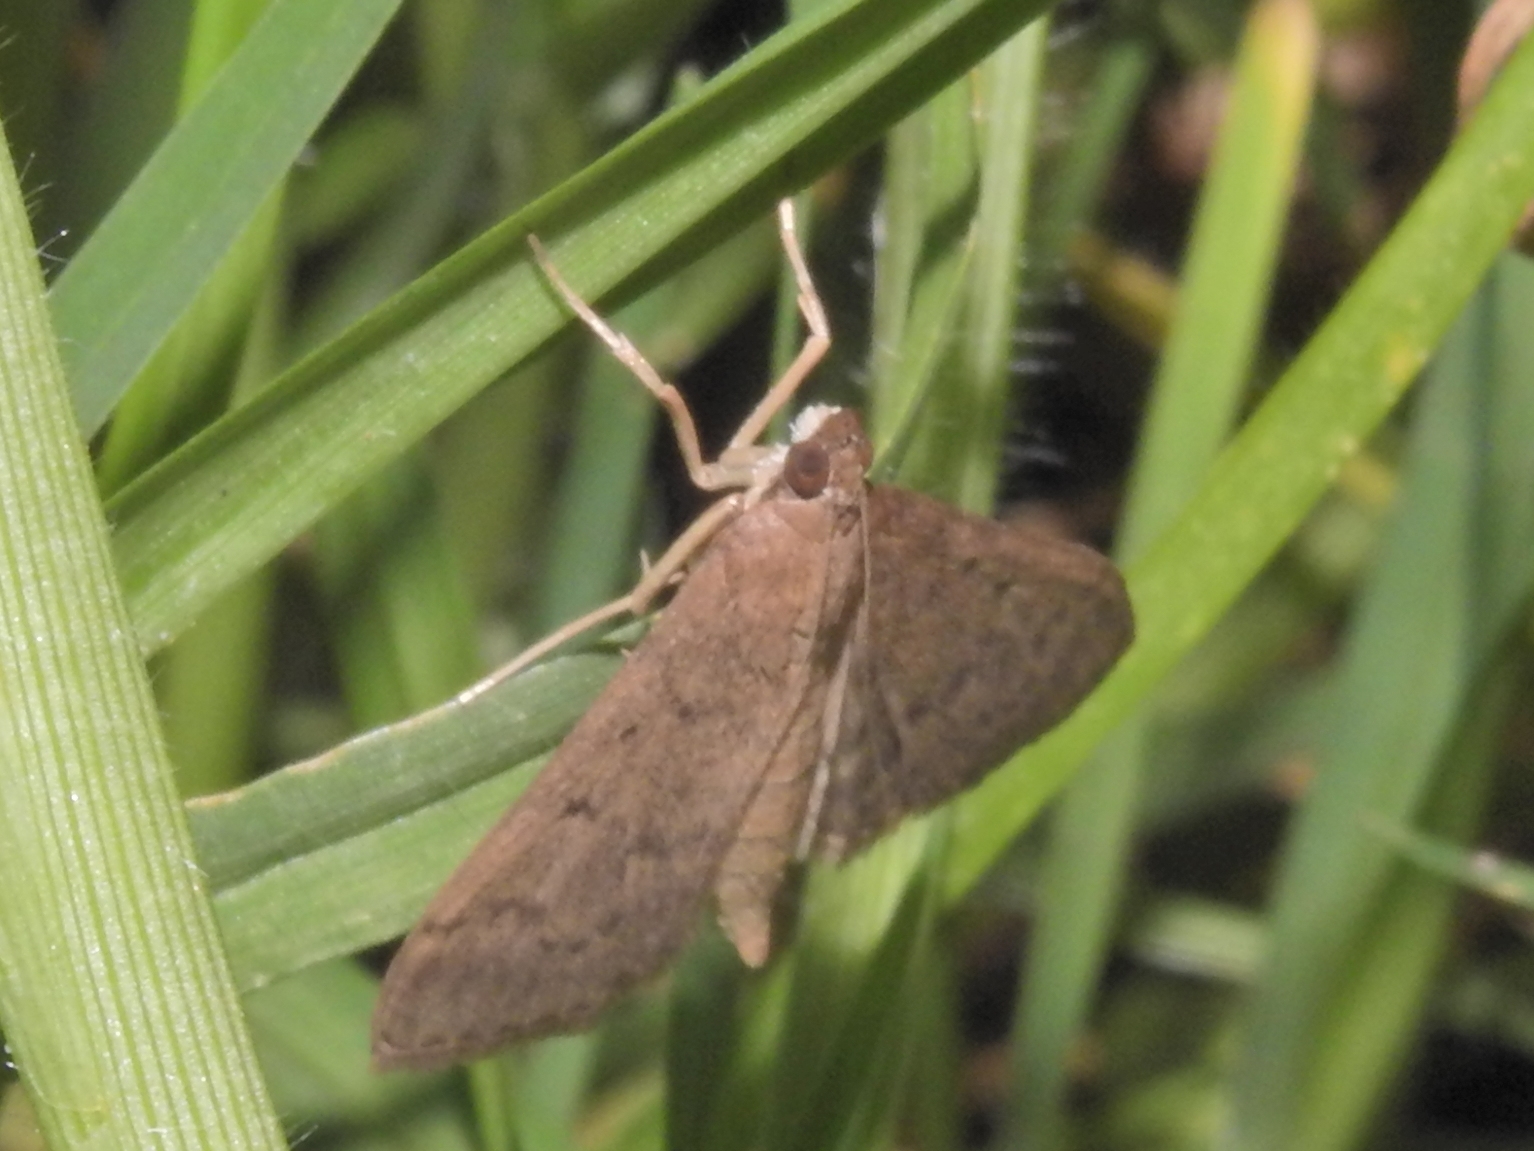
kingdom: Animalia
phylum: Arthropoda
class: Insecta
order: Lepidoptera
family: Crambidae
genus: Herpetogramma
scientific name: Herpetogramma licarsisalis
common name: Grass webworm
